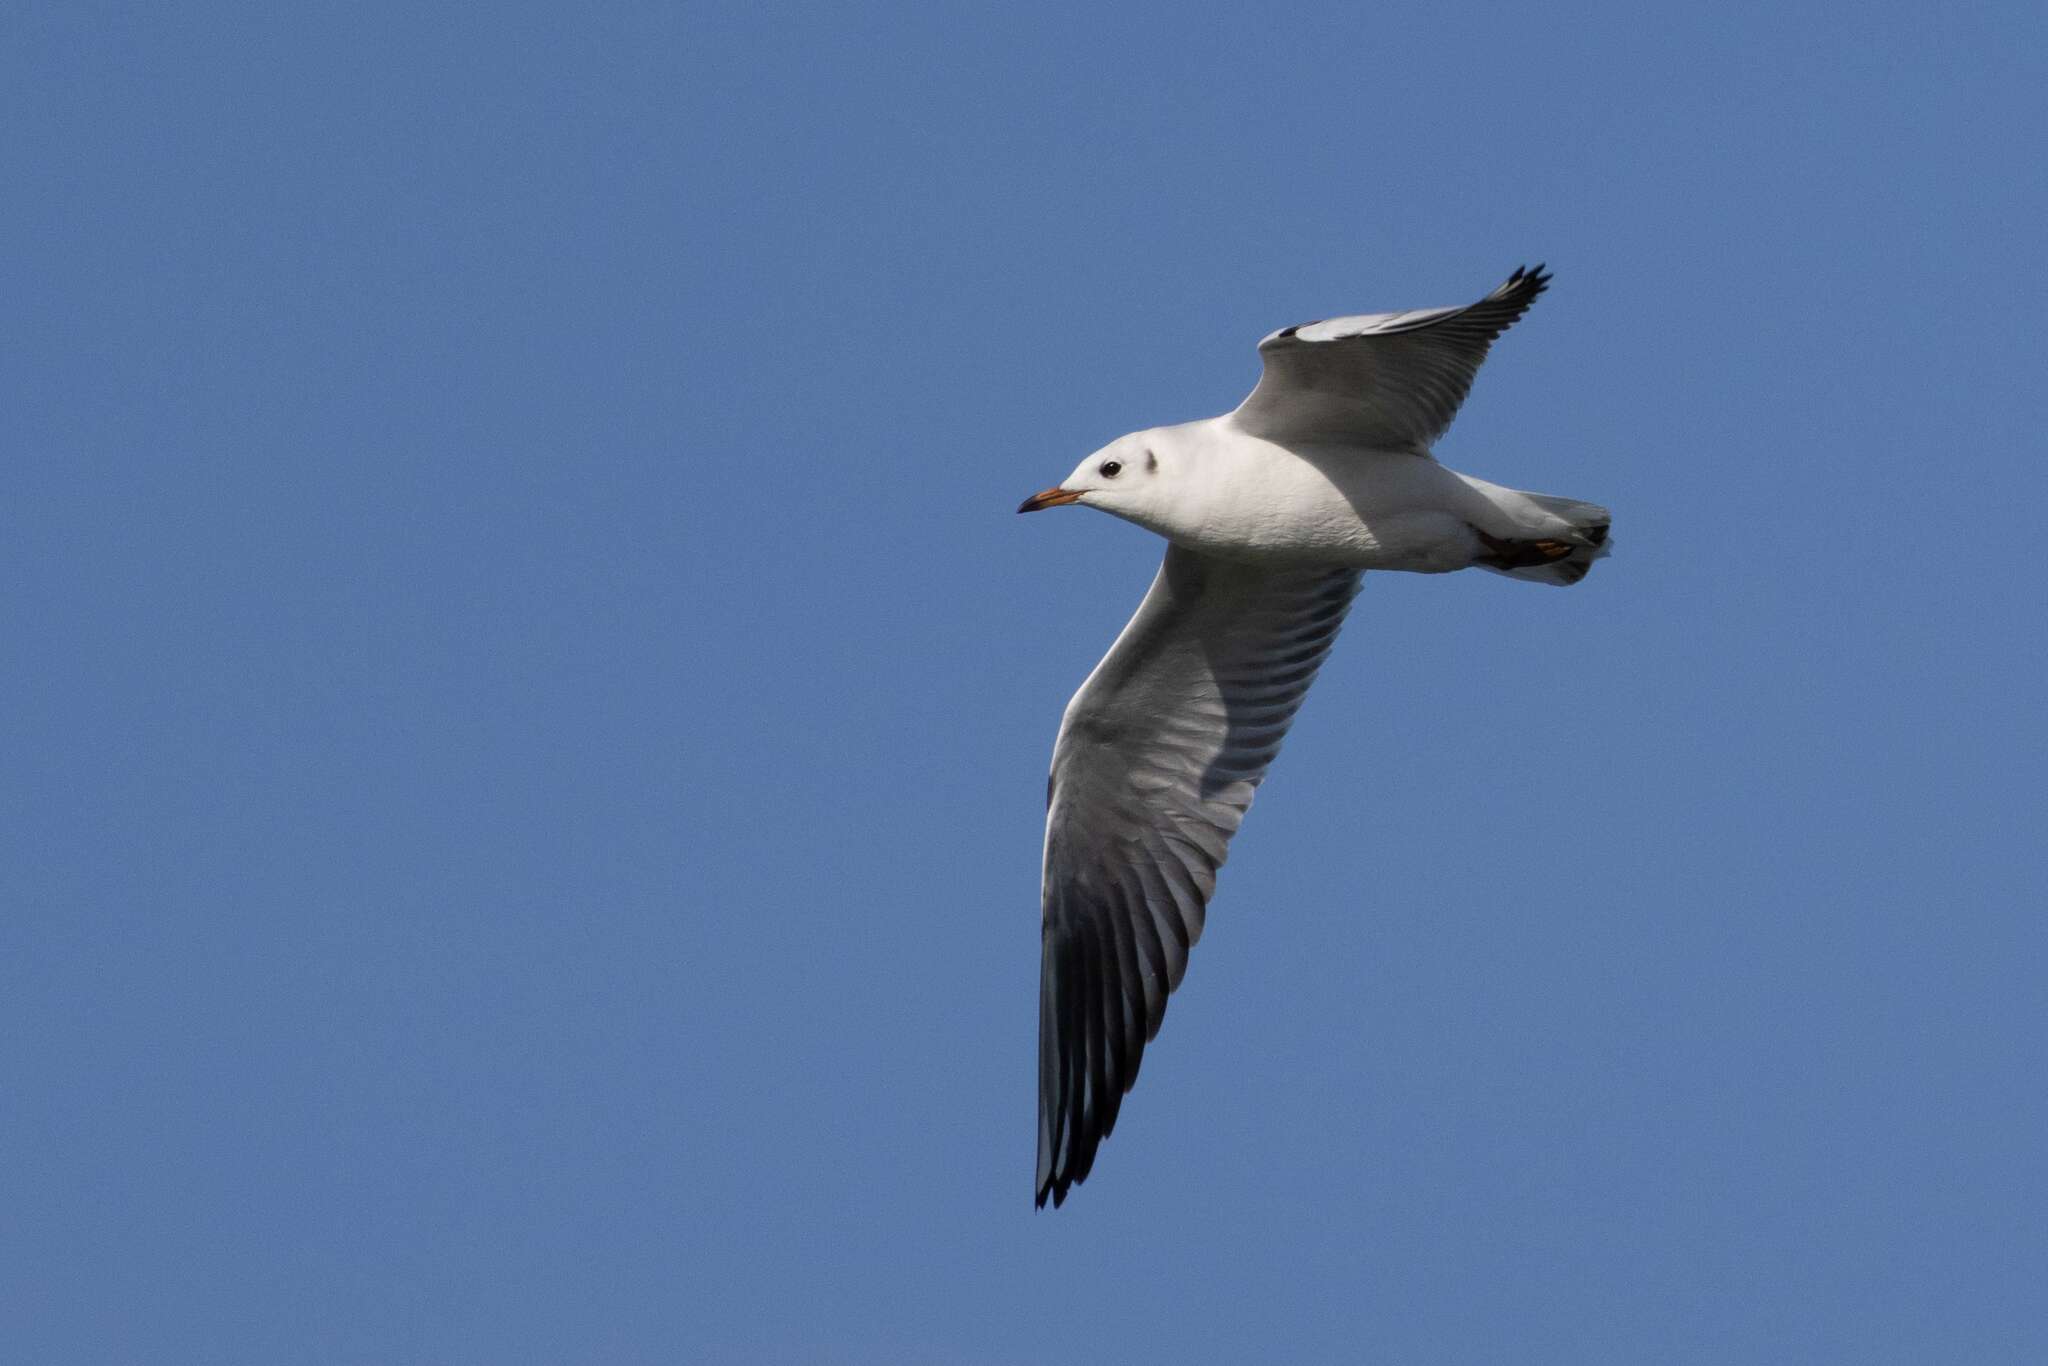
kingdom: Animalia
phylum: Chordata
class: Aves
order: Charadriiformes
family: Laridae
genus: Chroicocephalus
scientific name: Chroicocephalus ridibundus
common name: Black-headed gull
